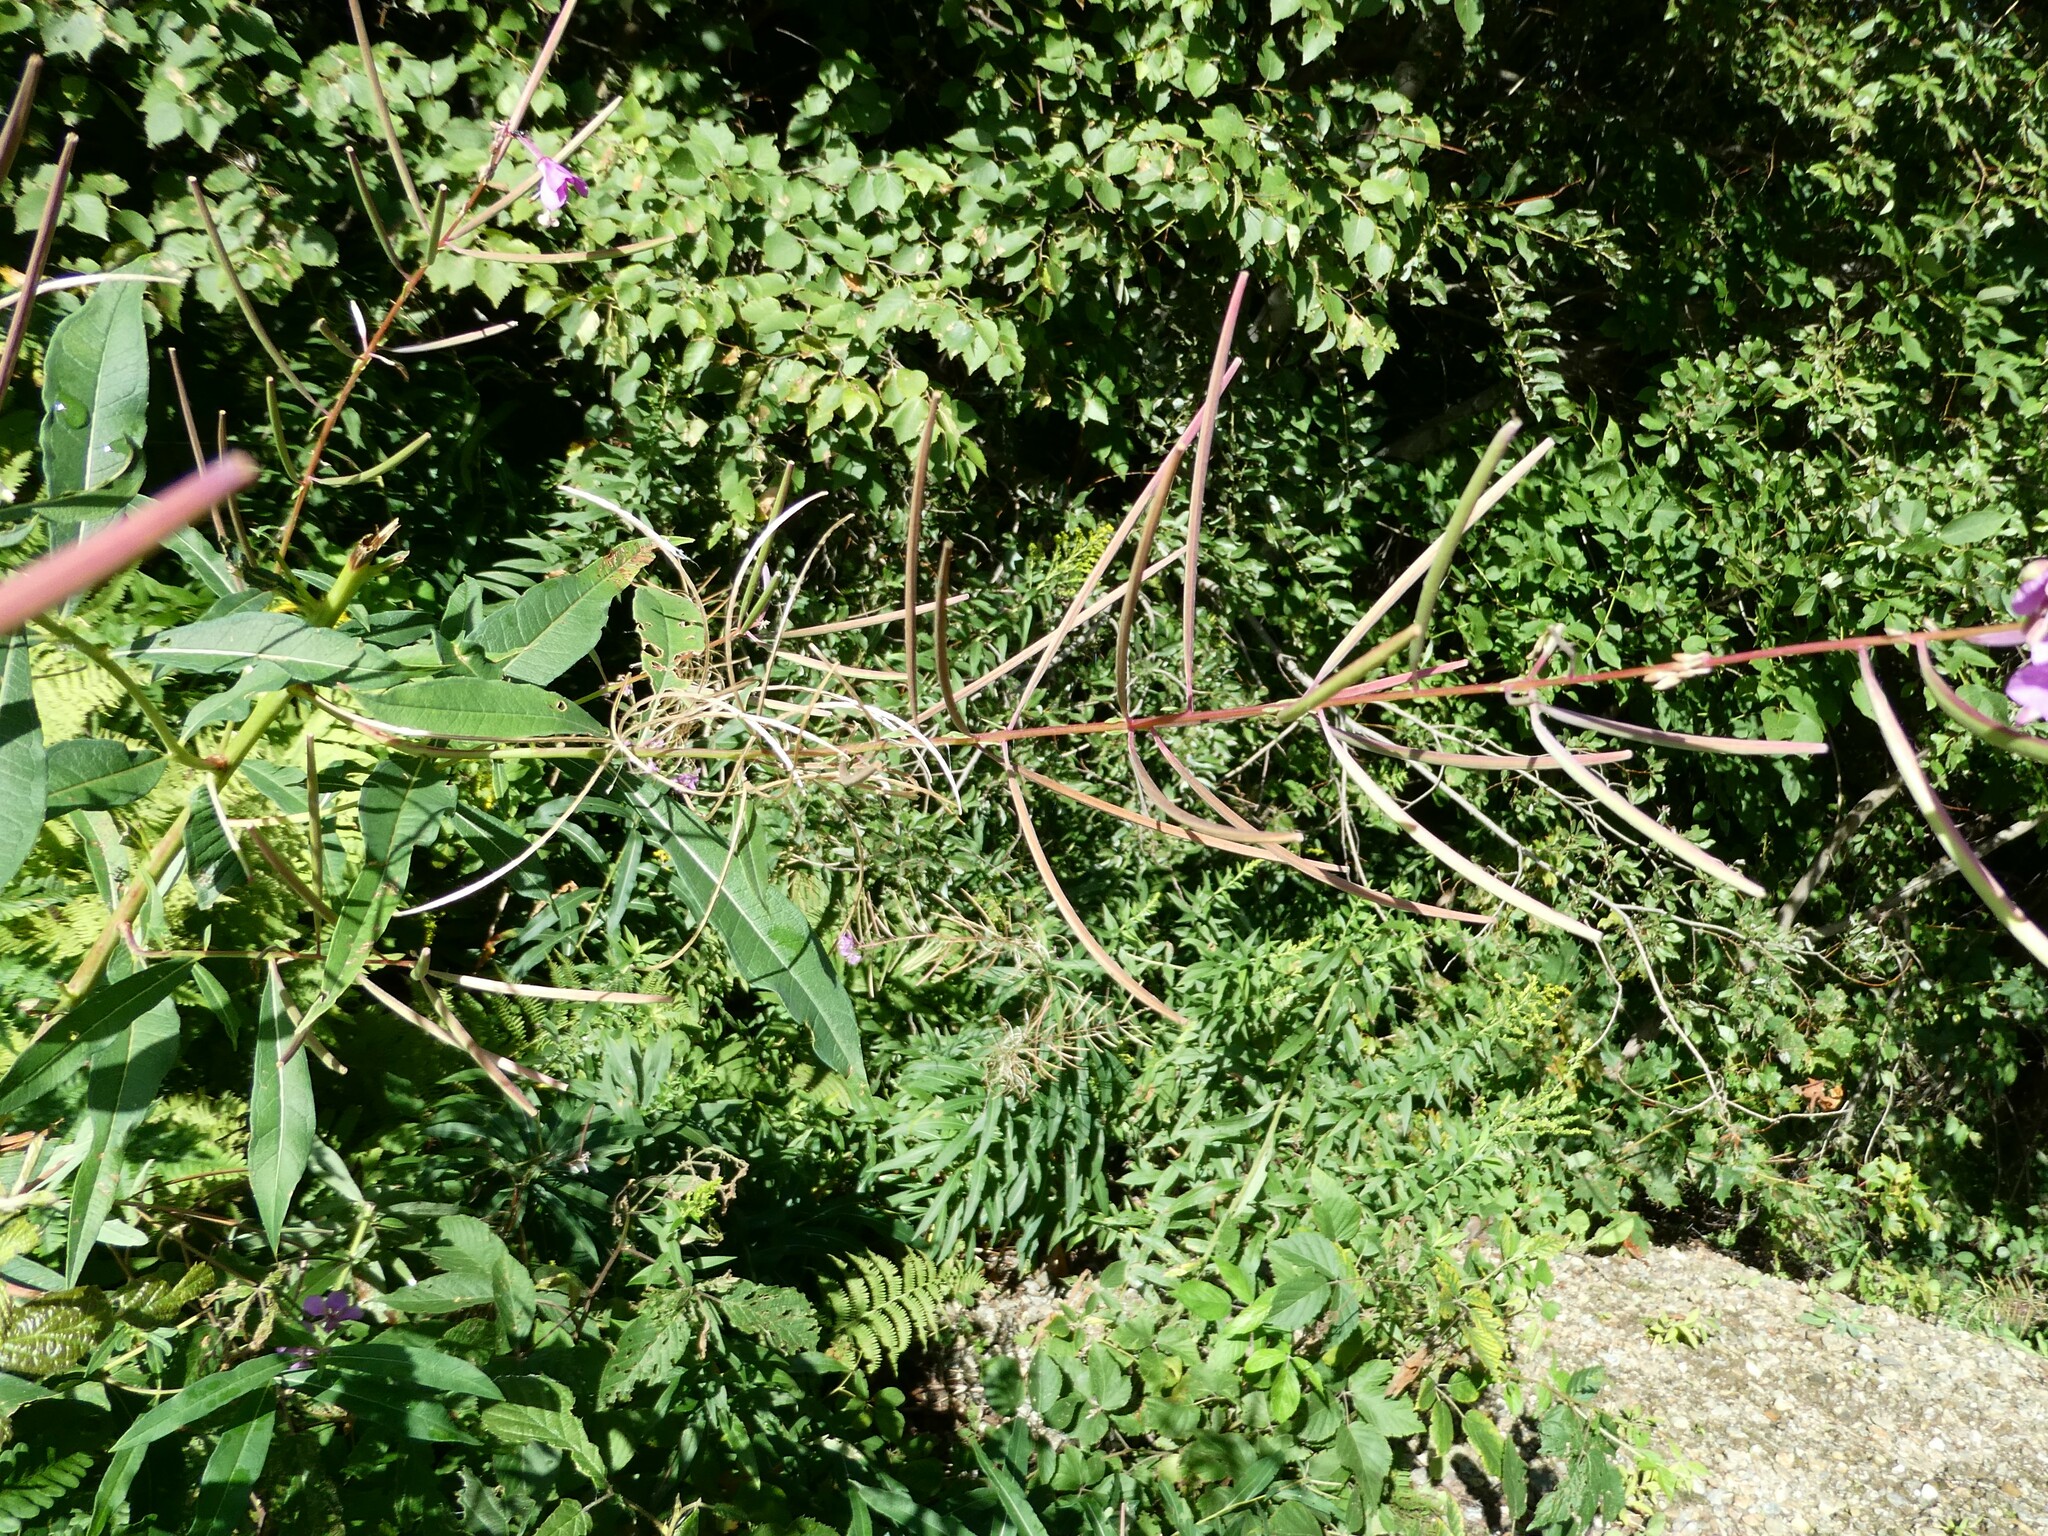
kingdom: Plantae
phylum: Tracheophyta
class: Magnoliopsida
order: Myrtales
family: Onagraceae
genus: Chamaenerion
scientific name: Chamaenerion angustifolium
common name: Fireweed
